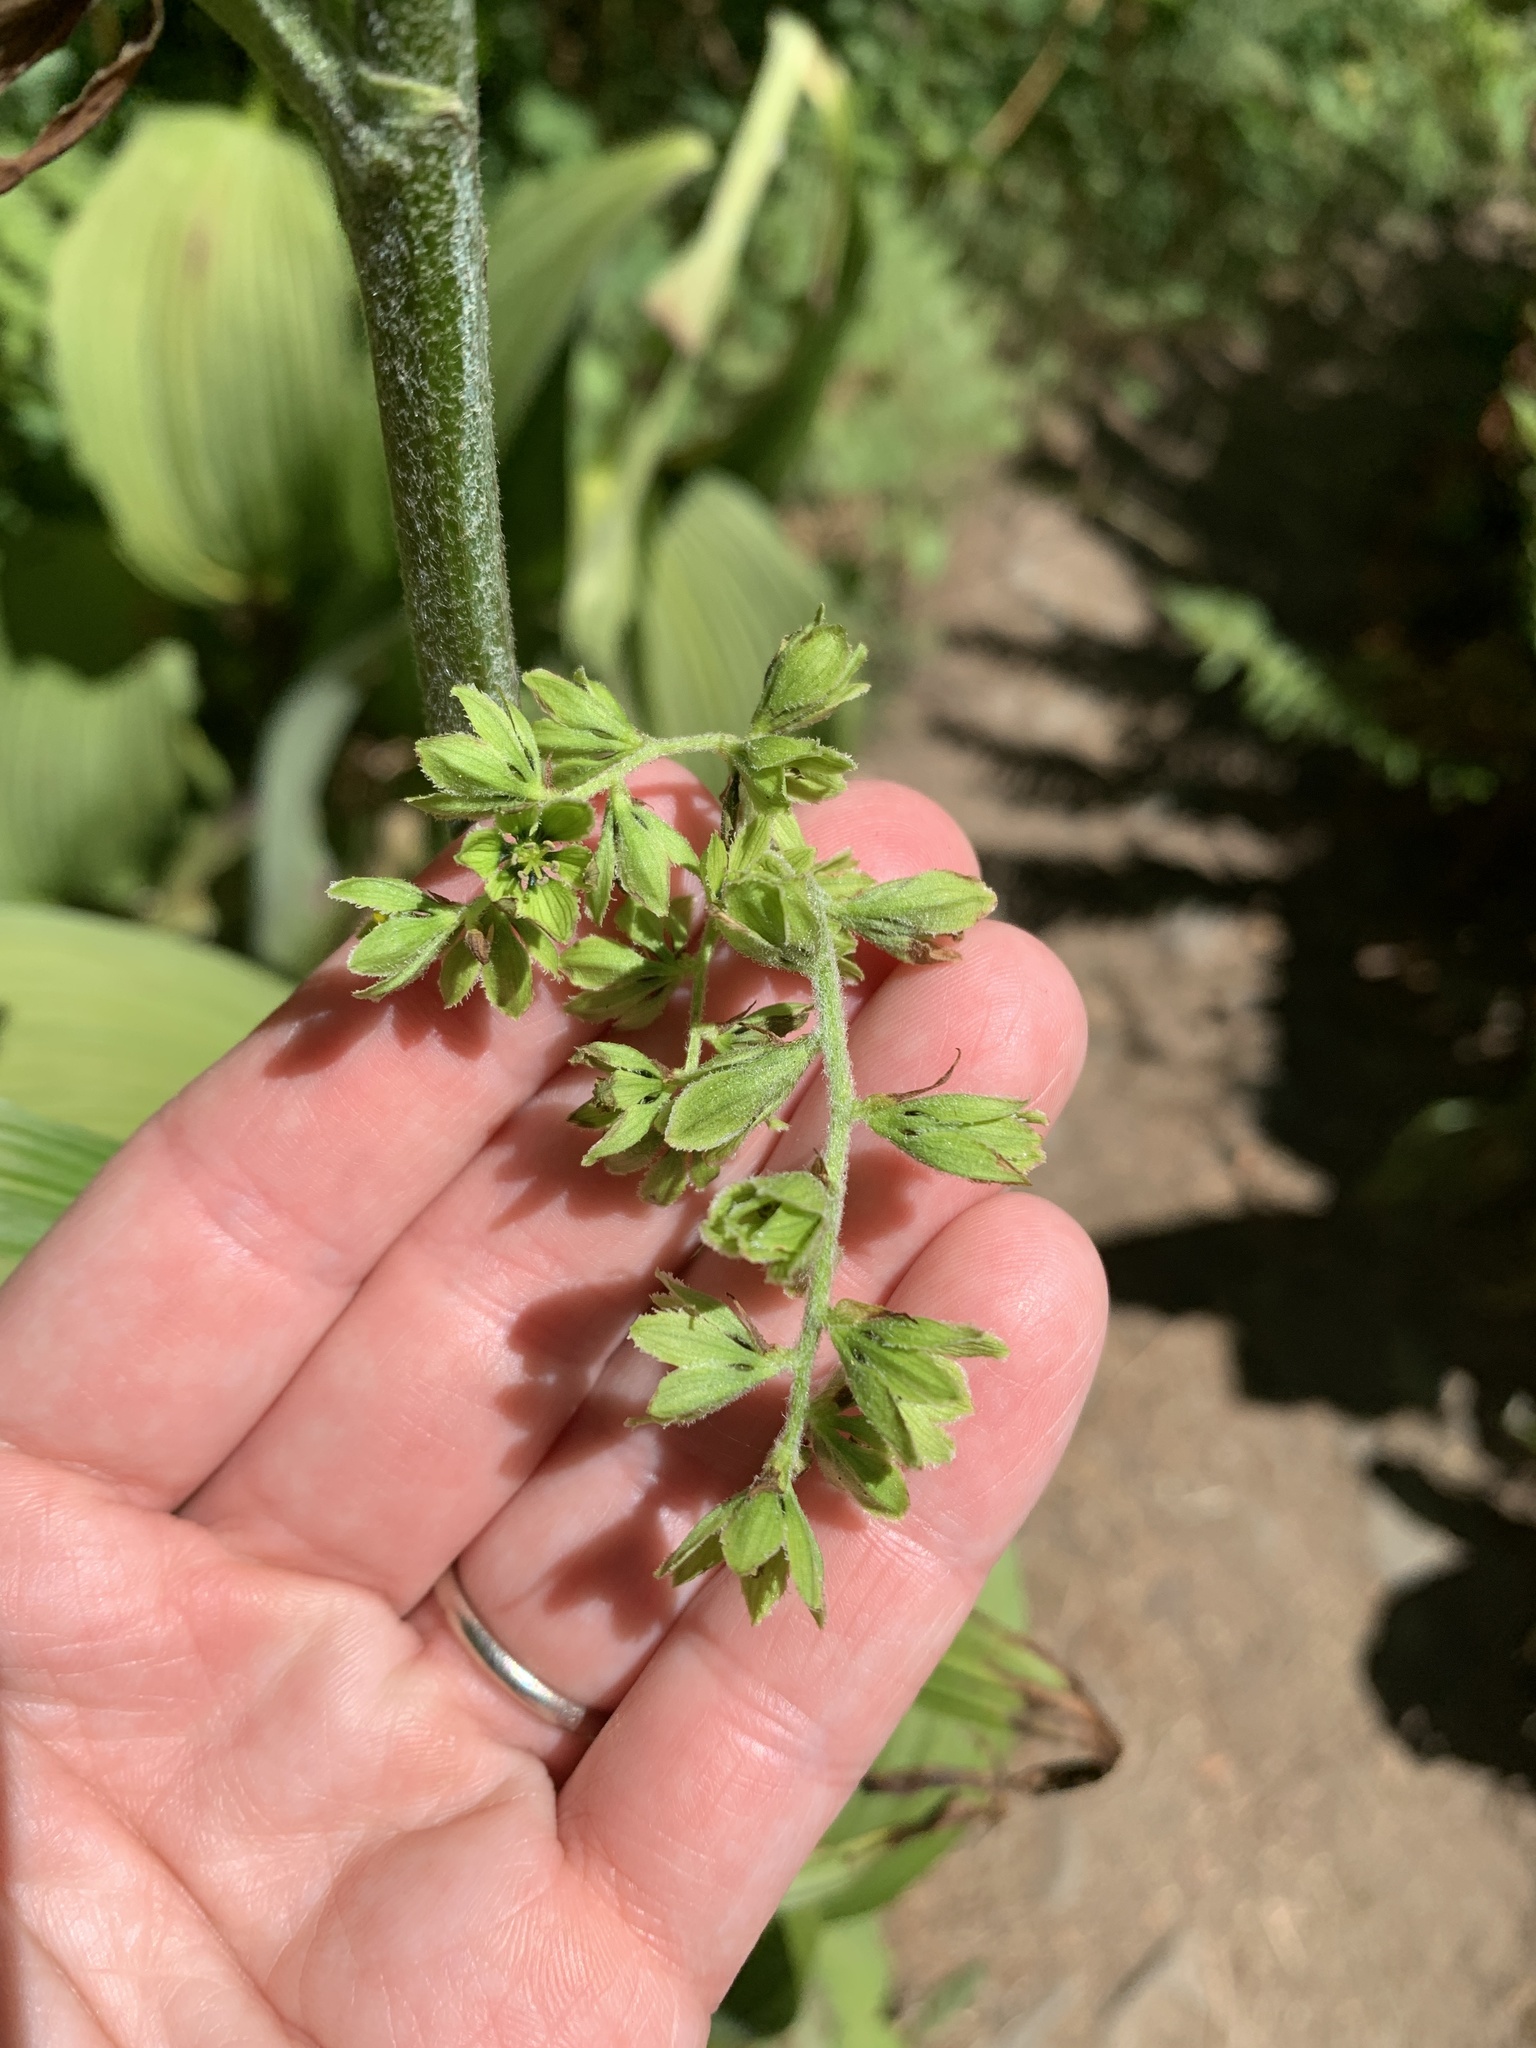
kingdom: Plantae
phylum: Tracheophyta
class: Liliopsida
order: Liliales
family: Melanthiaceae
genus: Veratrum
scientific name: Veratrum viride
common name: American false hellebore
